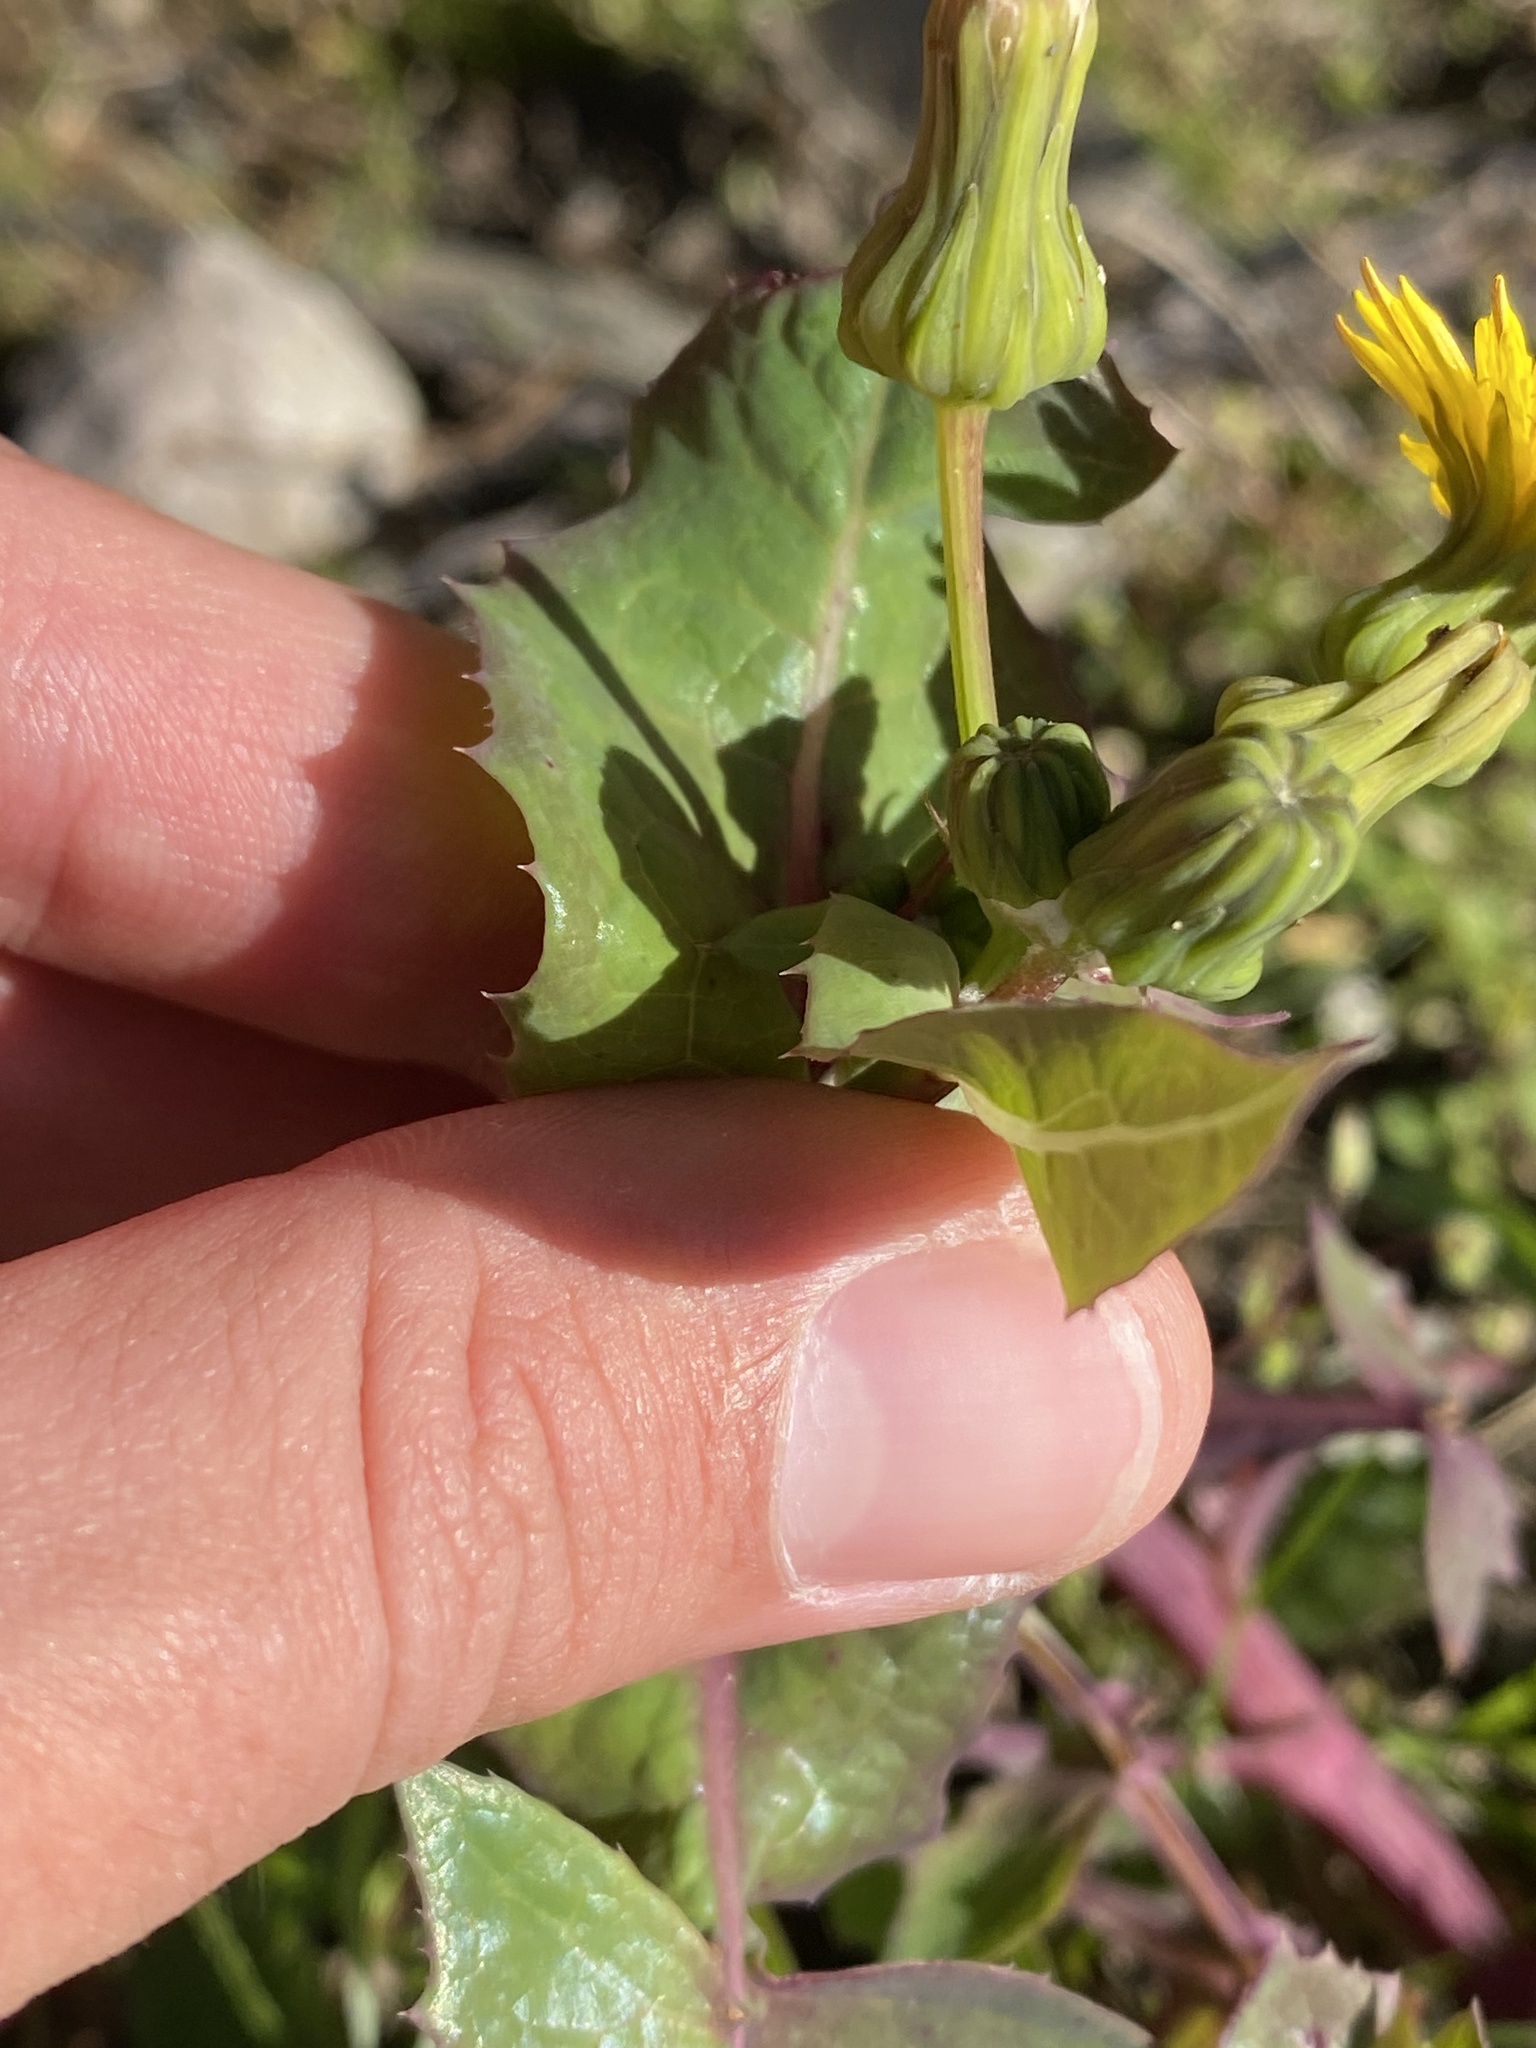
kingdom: Plantae
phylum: Tracheophyta
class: Magnoliopsida
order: Asterales
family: Asteraceae
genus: Sonchus
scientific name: Sonchus oleraceus
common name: Common sowthistle
